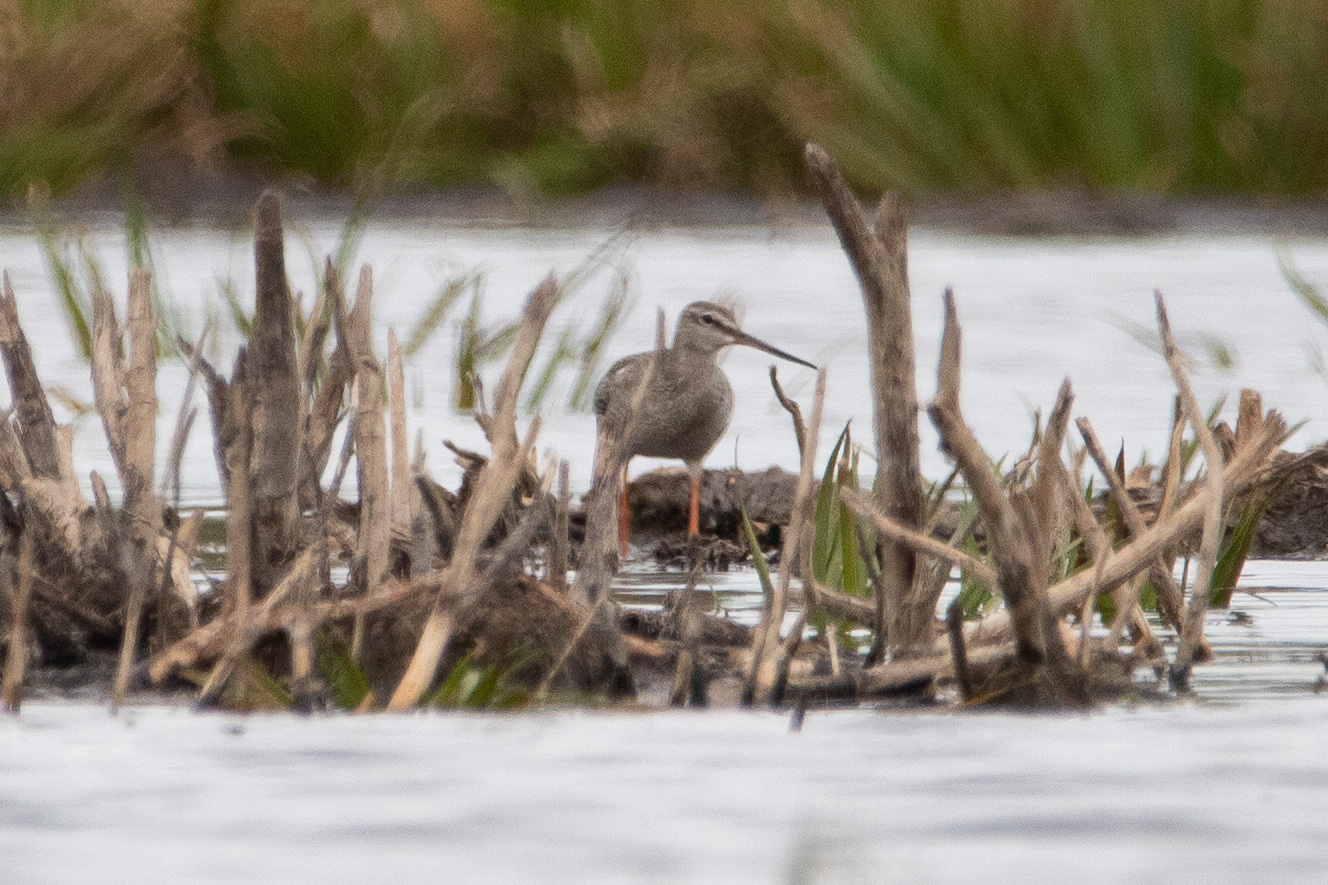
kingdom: Animalia
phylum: Chordata
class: Aves
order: Charadriiformes
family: Scolopacidae
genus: Tringa
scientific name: Tringa erythropus
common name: Spotted redshank
